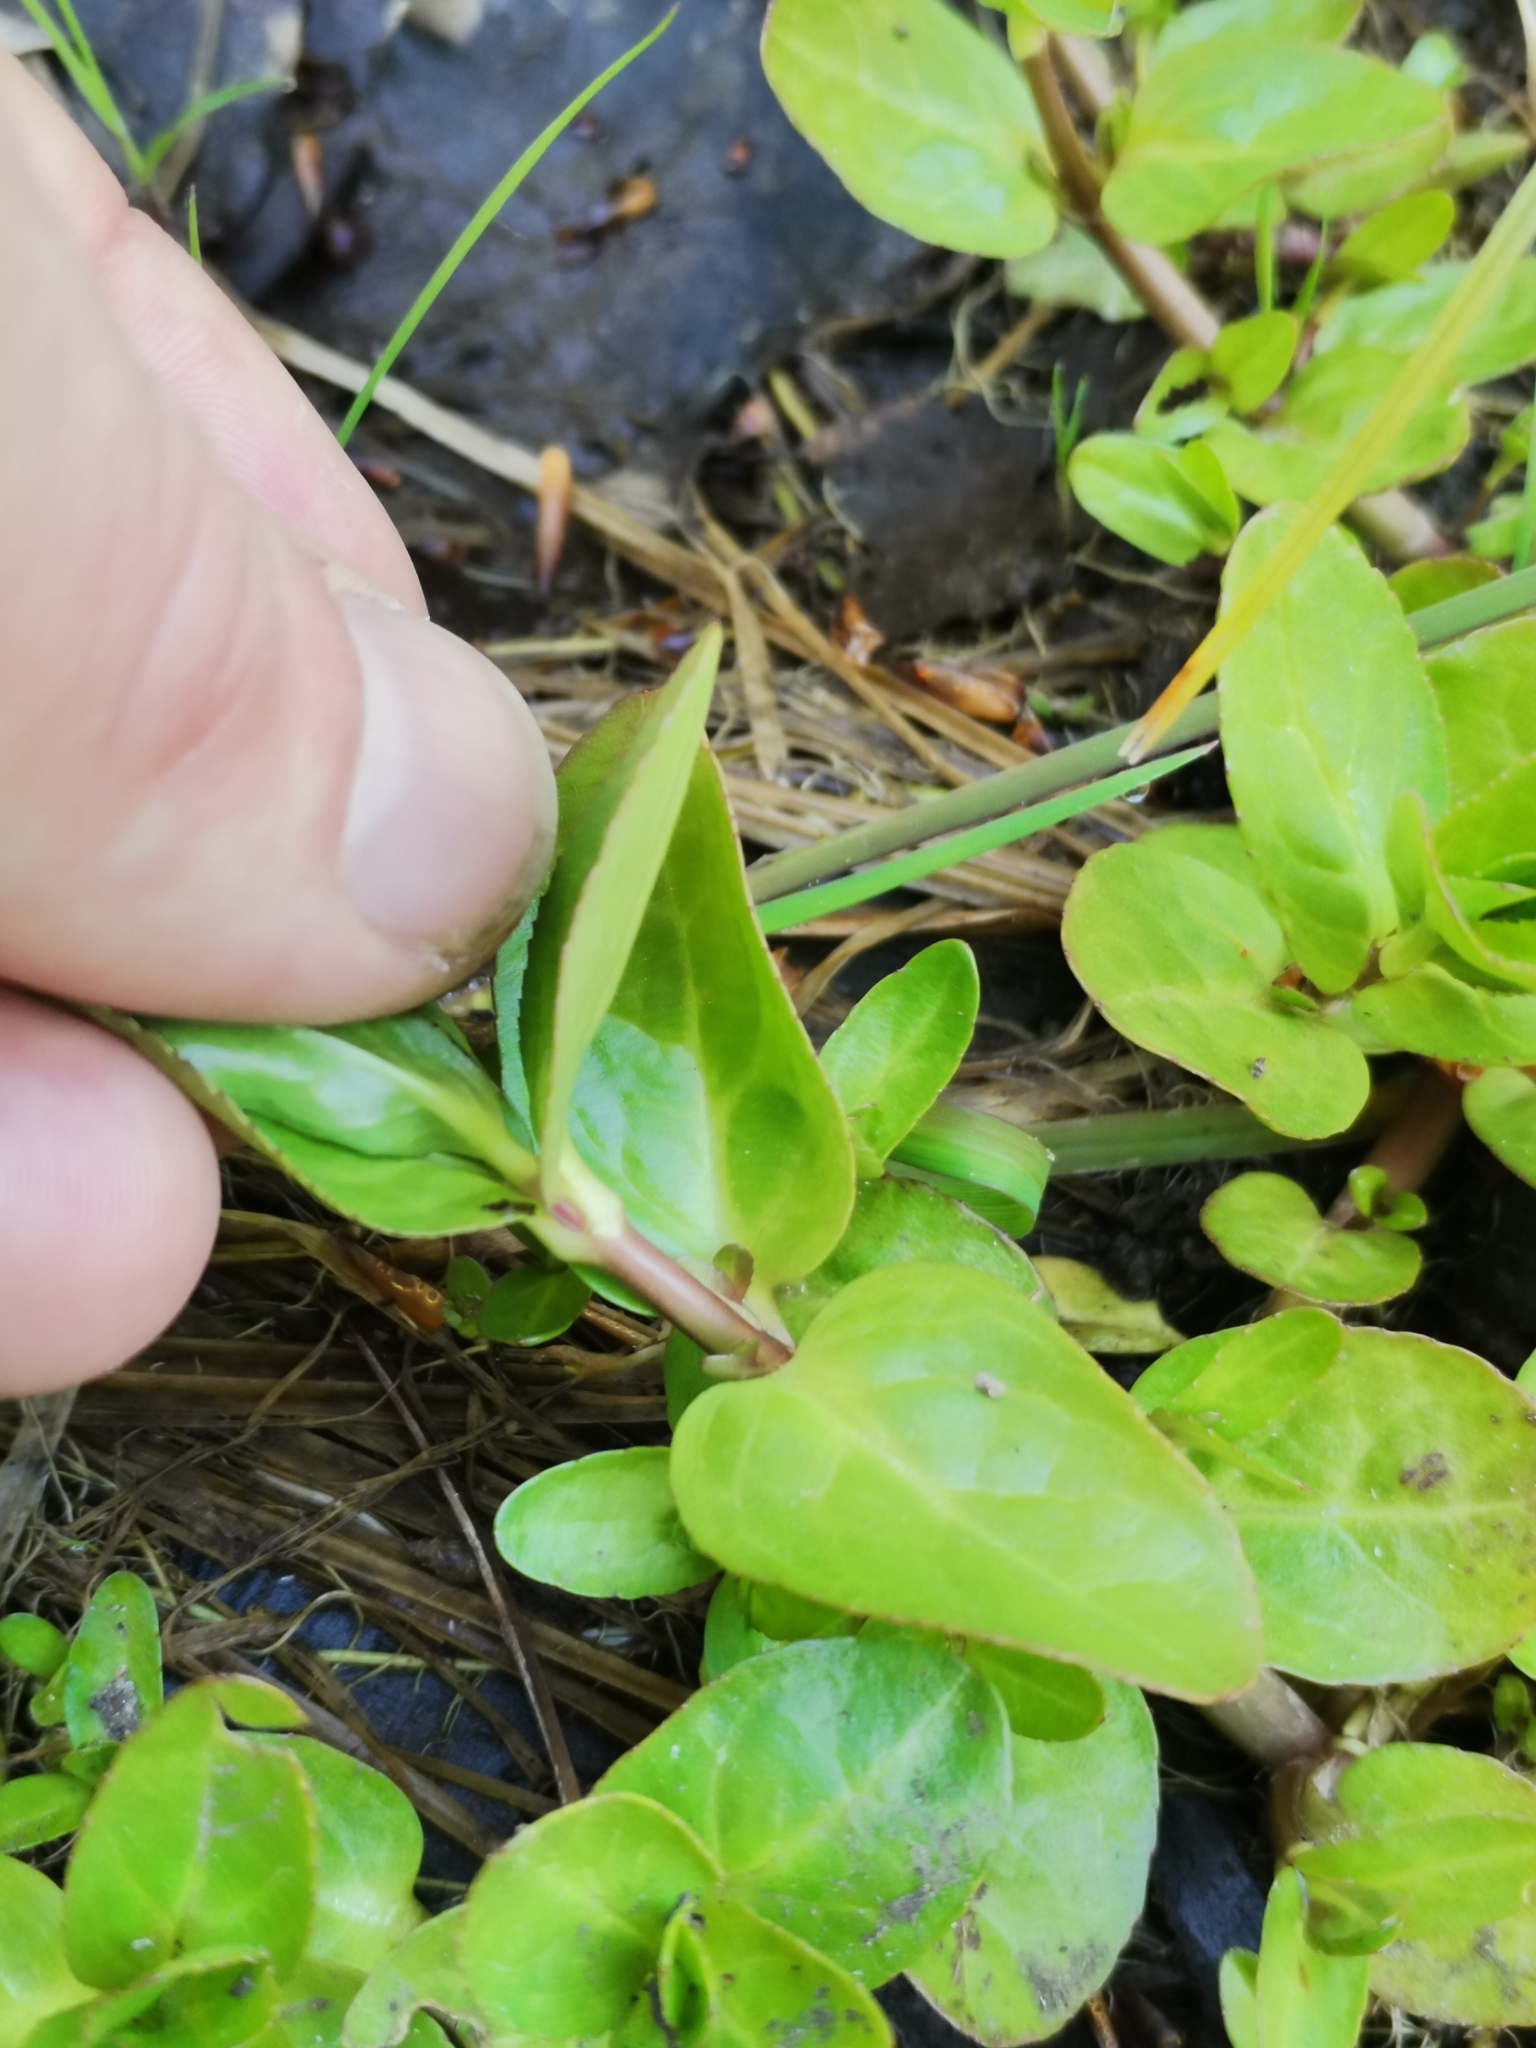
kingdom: Plantae
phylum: Tracheophyta
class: Magnoliopsida
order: Lamiales
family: Plantaginaceae
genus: Veronica
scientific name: Veronica beccabunga
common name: Brooklime
